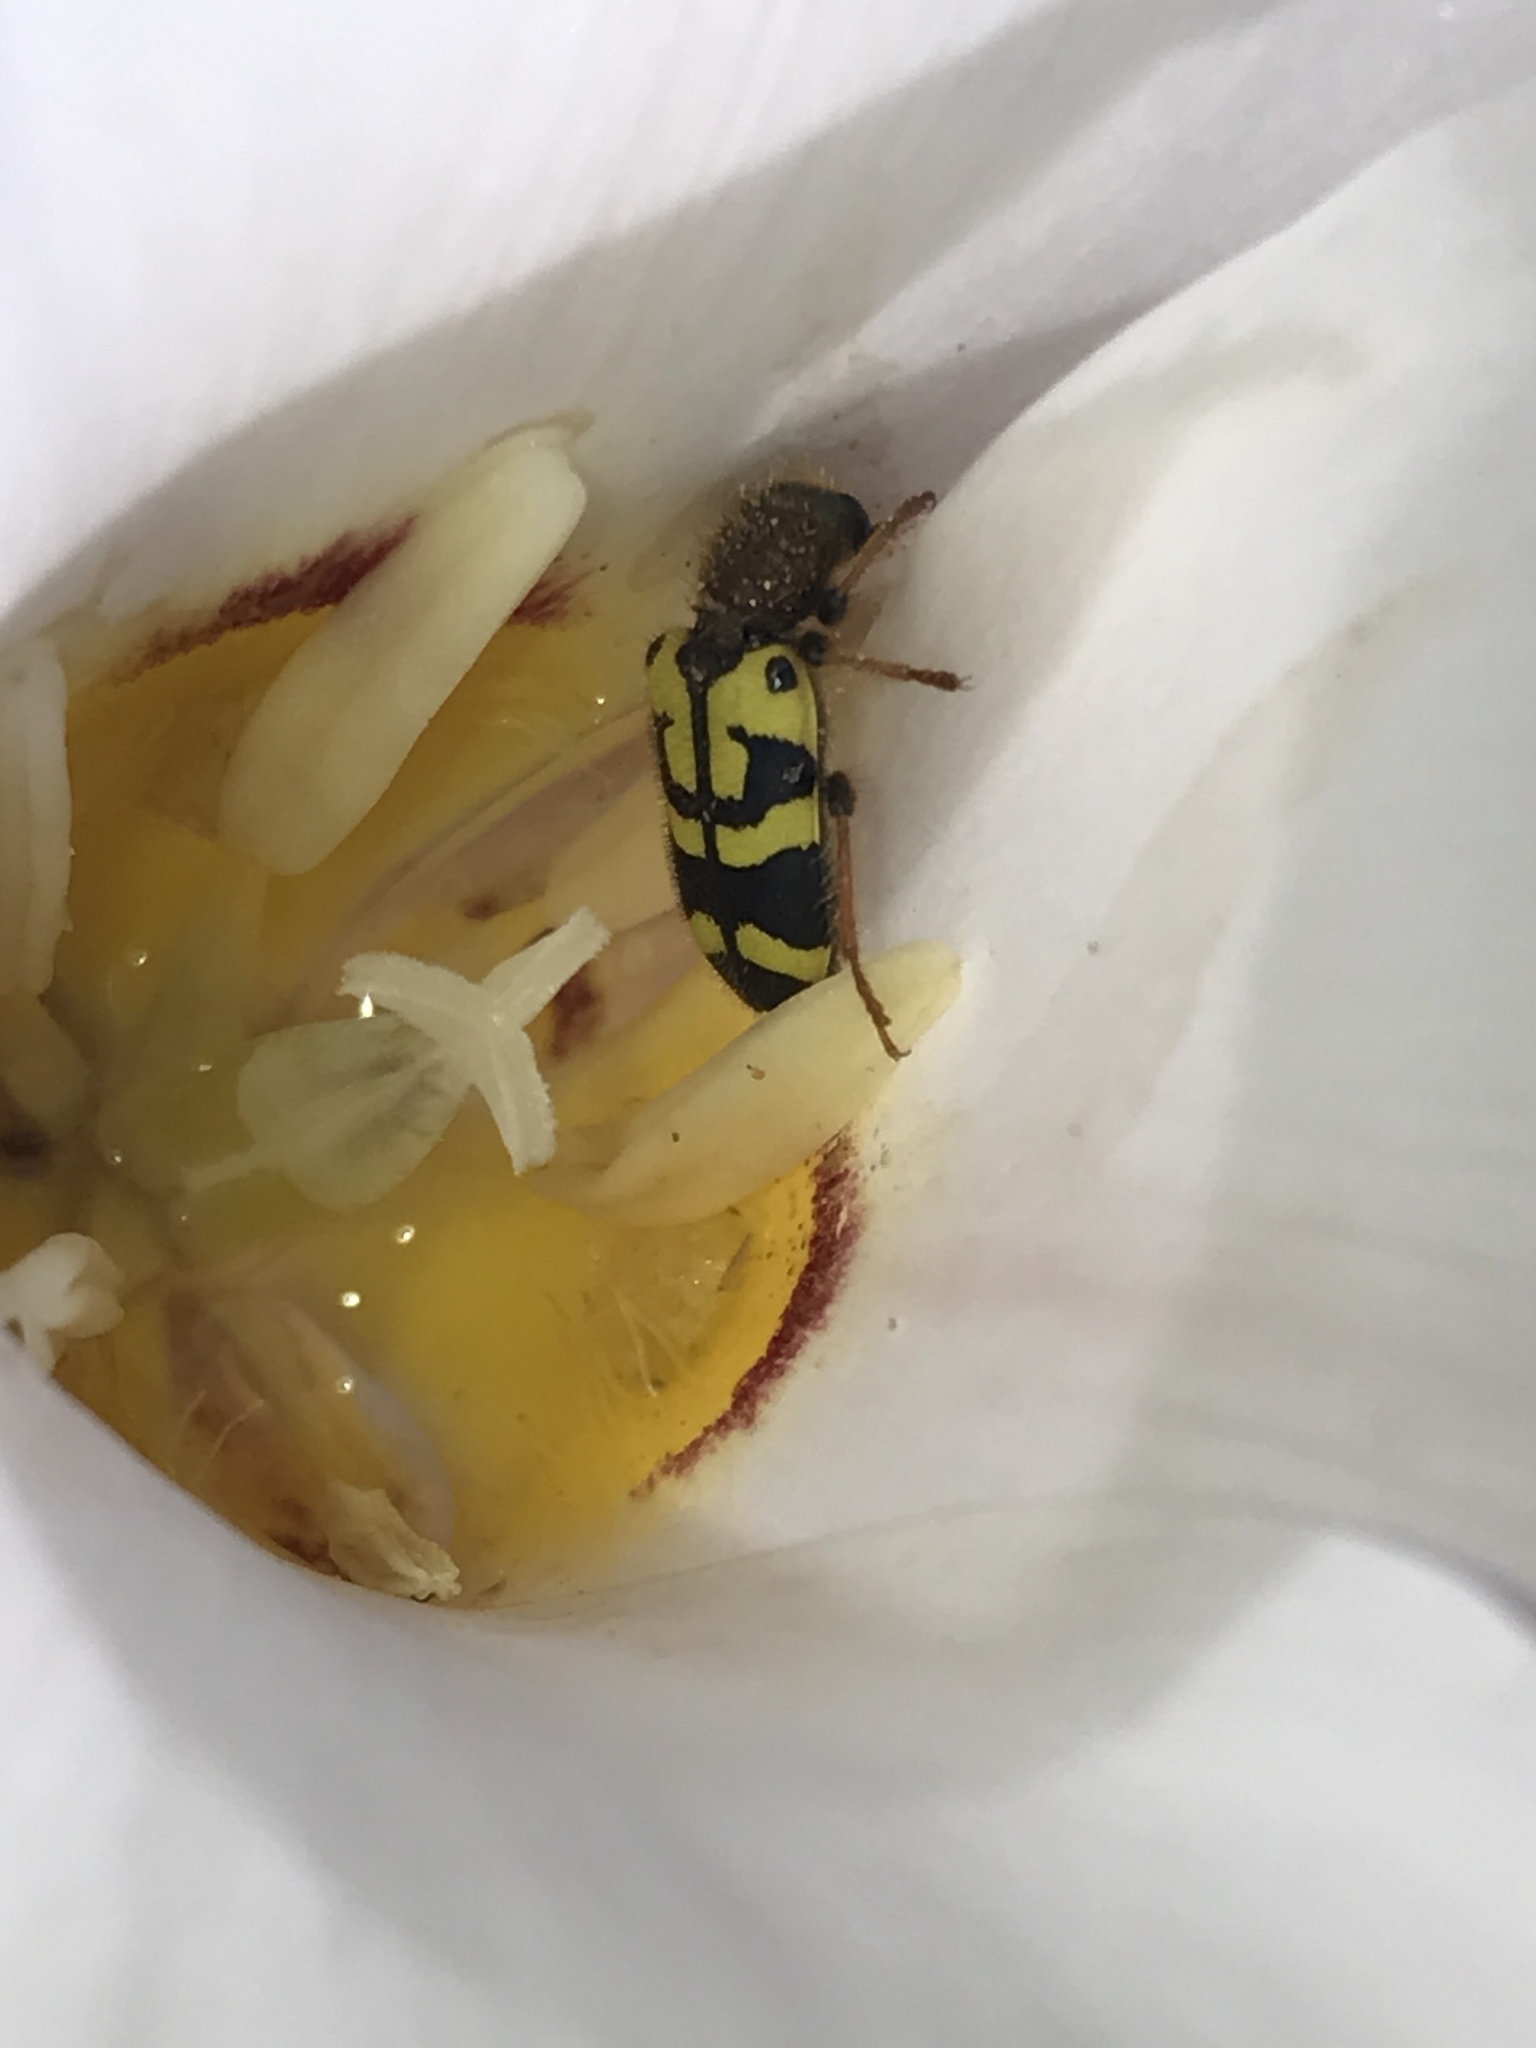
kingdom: Animalia
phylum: Arthropoda
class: Insecta
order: Coleoptera
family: Cleridae
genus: Trichodes
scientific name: Trichodes ornatus
